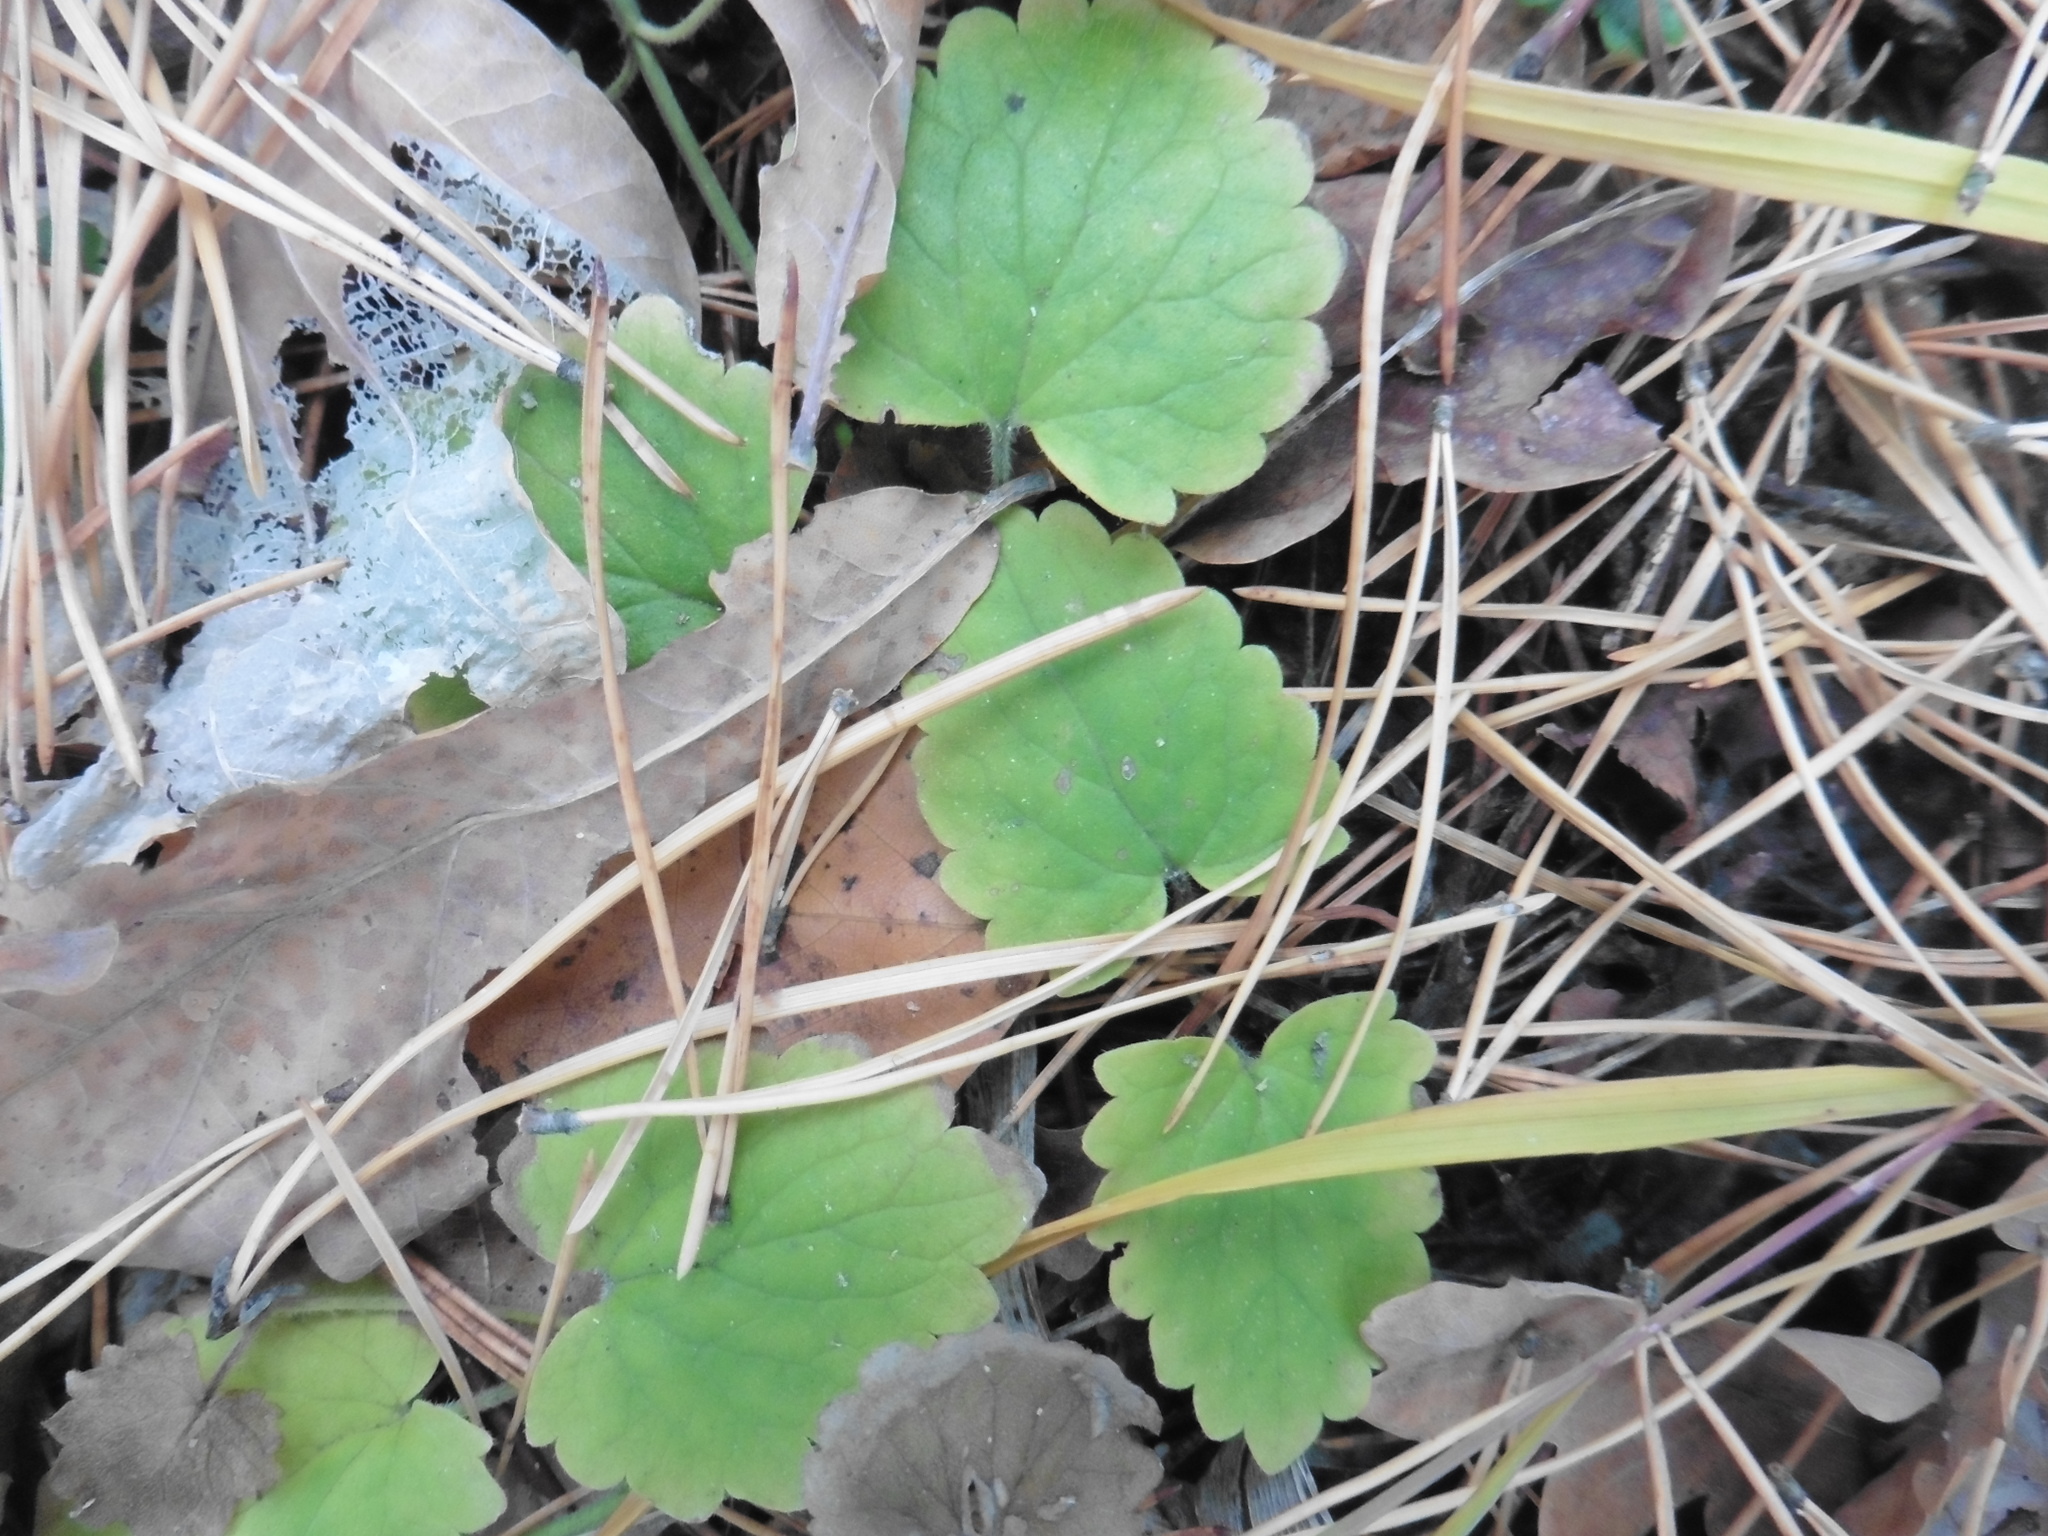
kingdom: Plantae
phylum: Tracheophyta
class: Magnoliopsida
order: Lamiales
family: Lamiaceae
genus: Glechoma
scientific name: Glechoma hederacea
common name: Ground ivy
